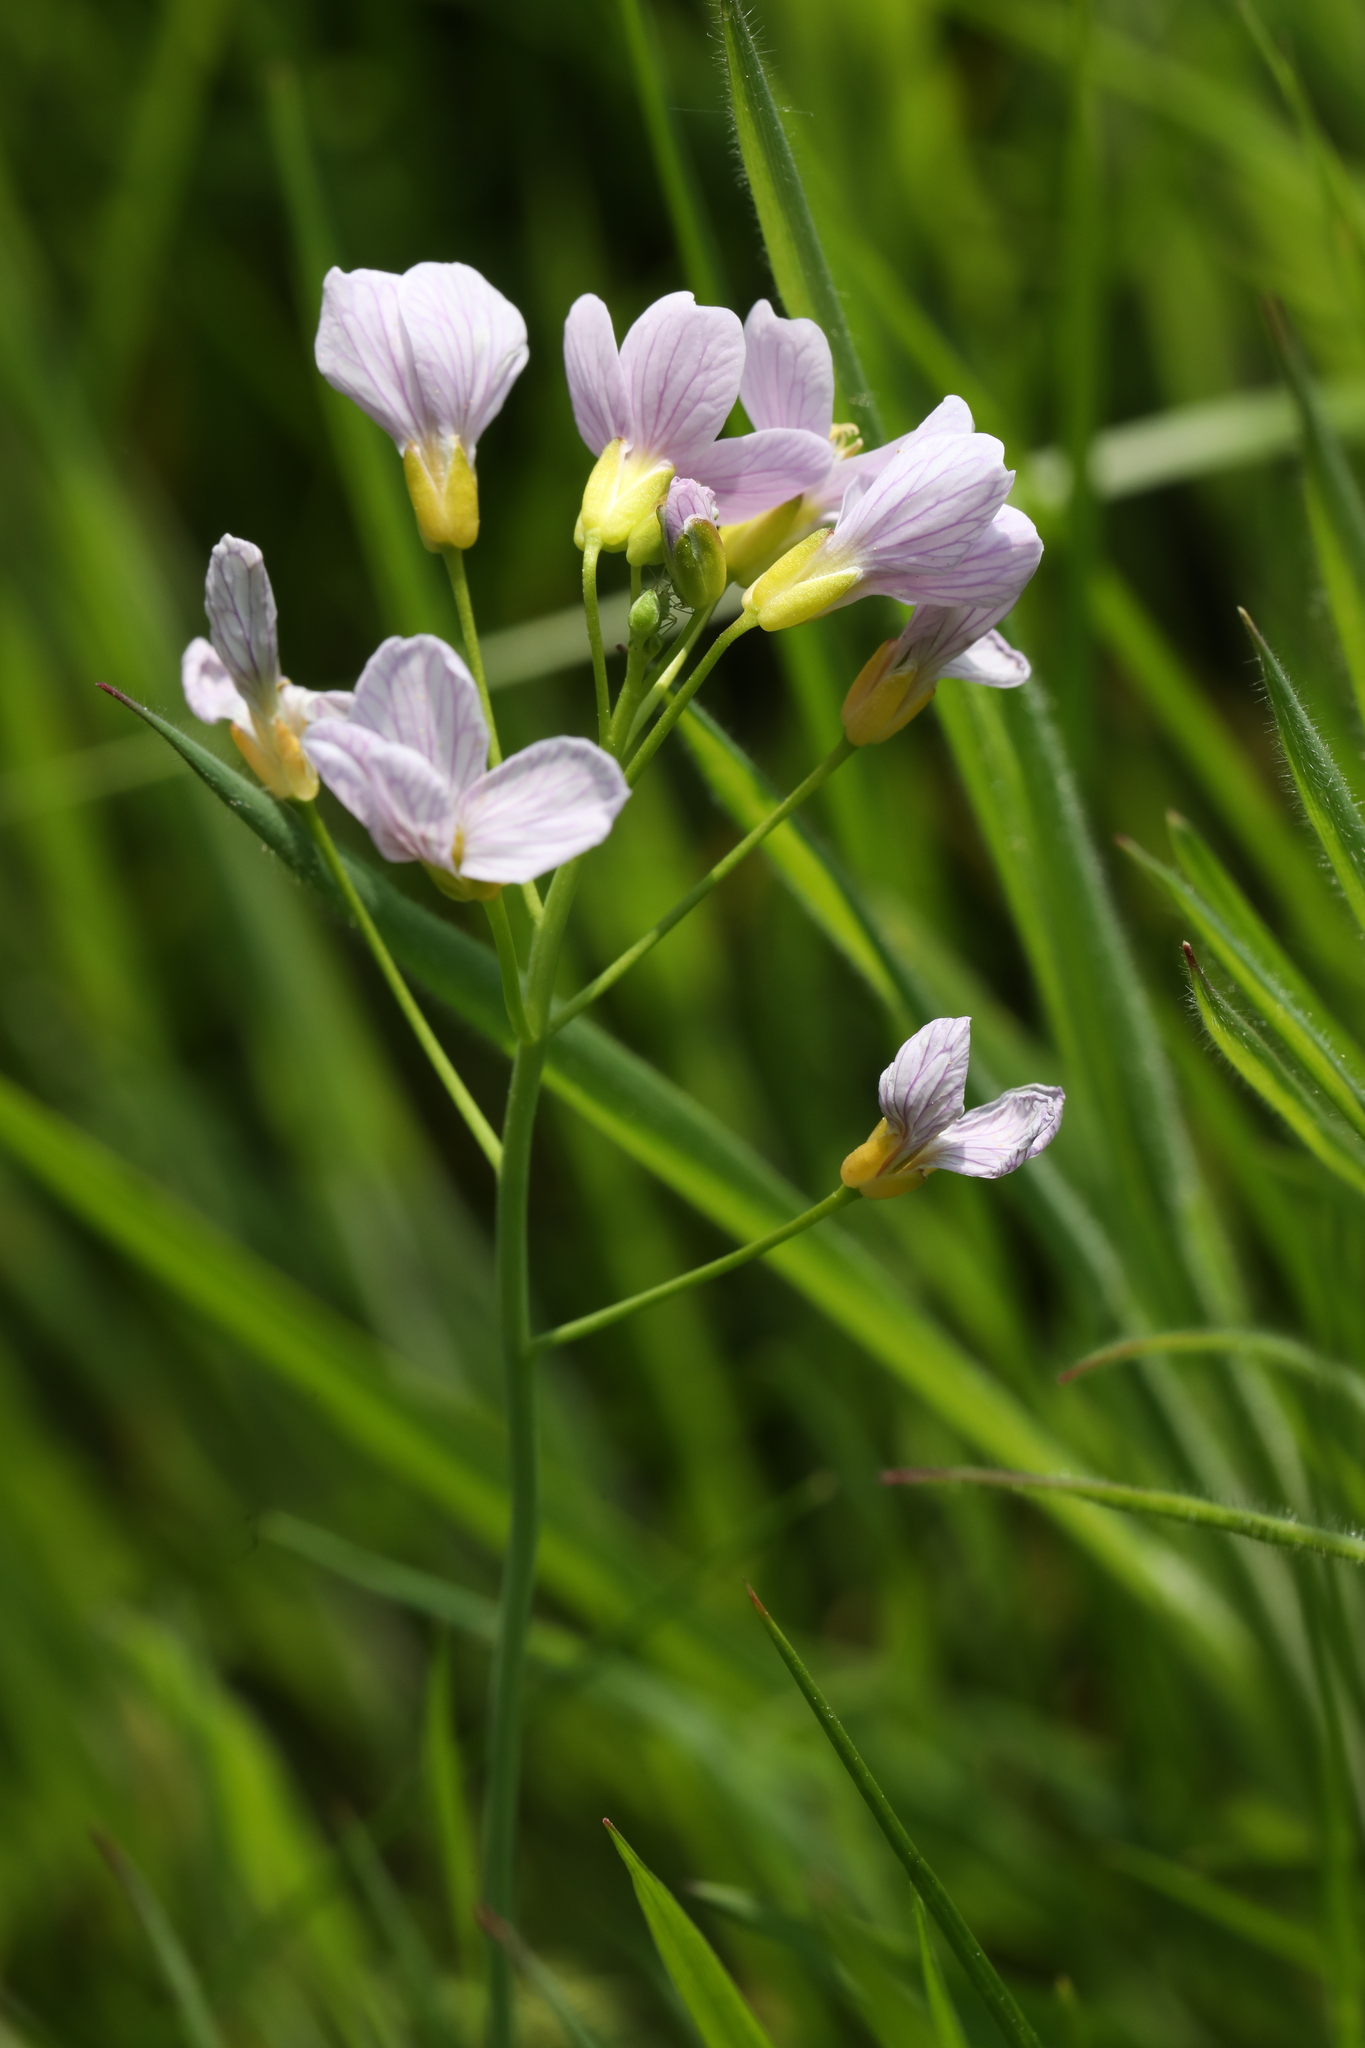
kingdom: Plantae
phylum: Tracheophyta
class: Magnoliopsida
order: Brassicales
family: Brassicaceae
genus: Cardamine
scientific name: Cardamine pratensis
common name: Cuckoo flower
